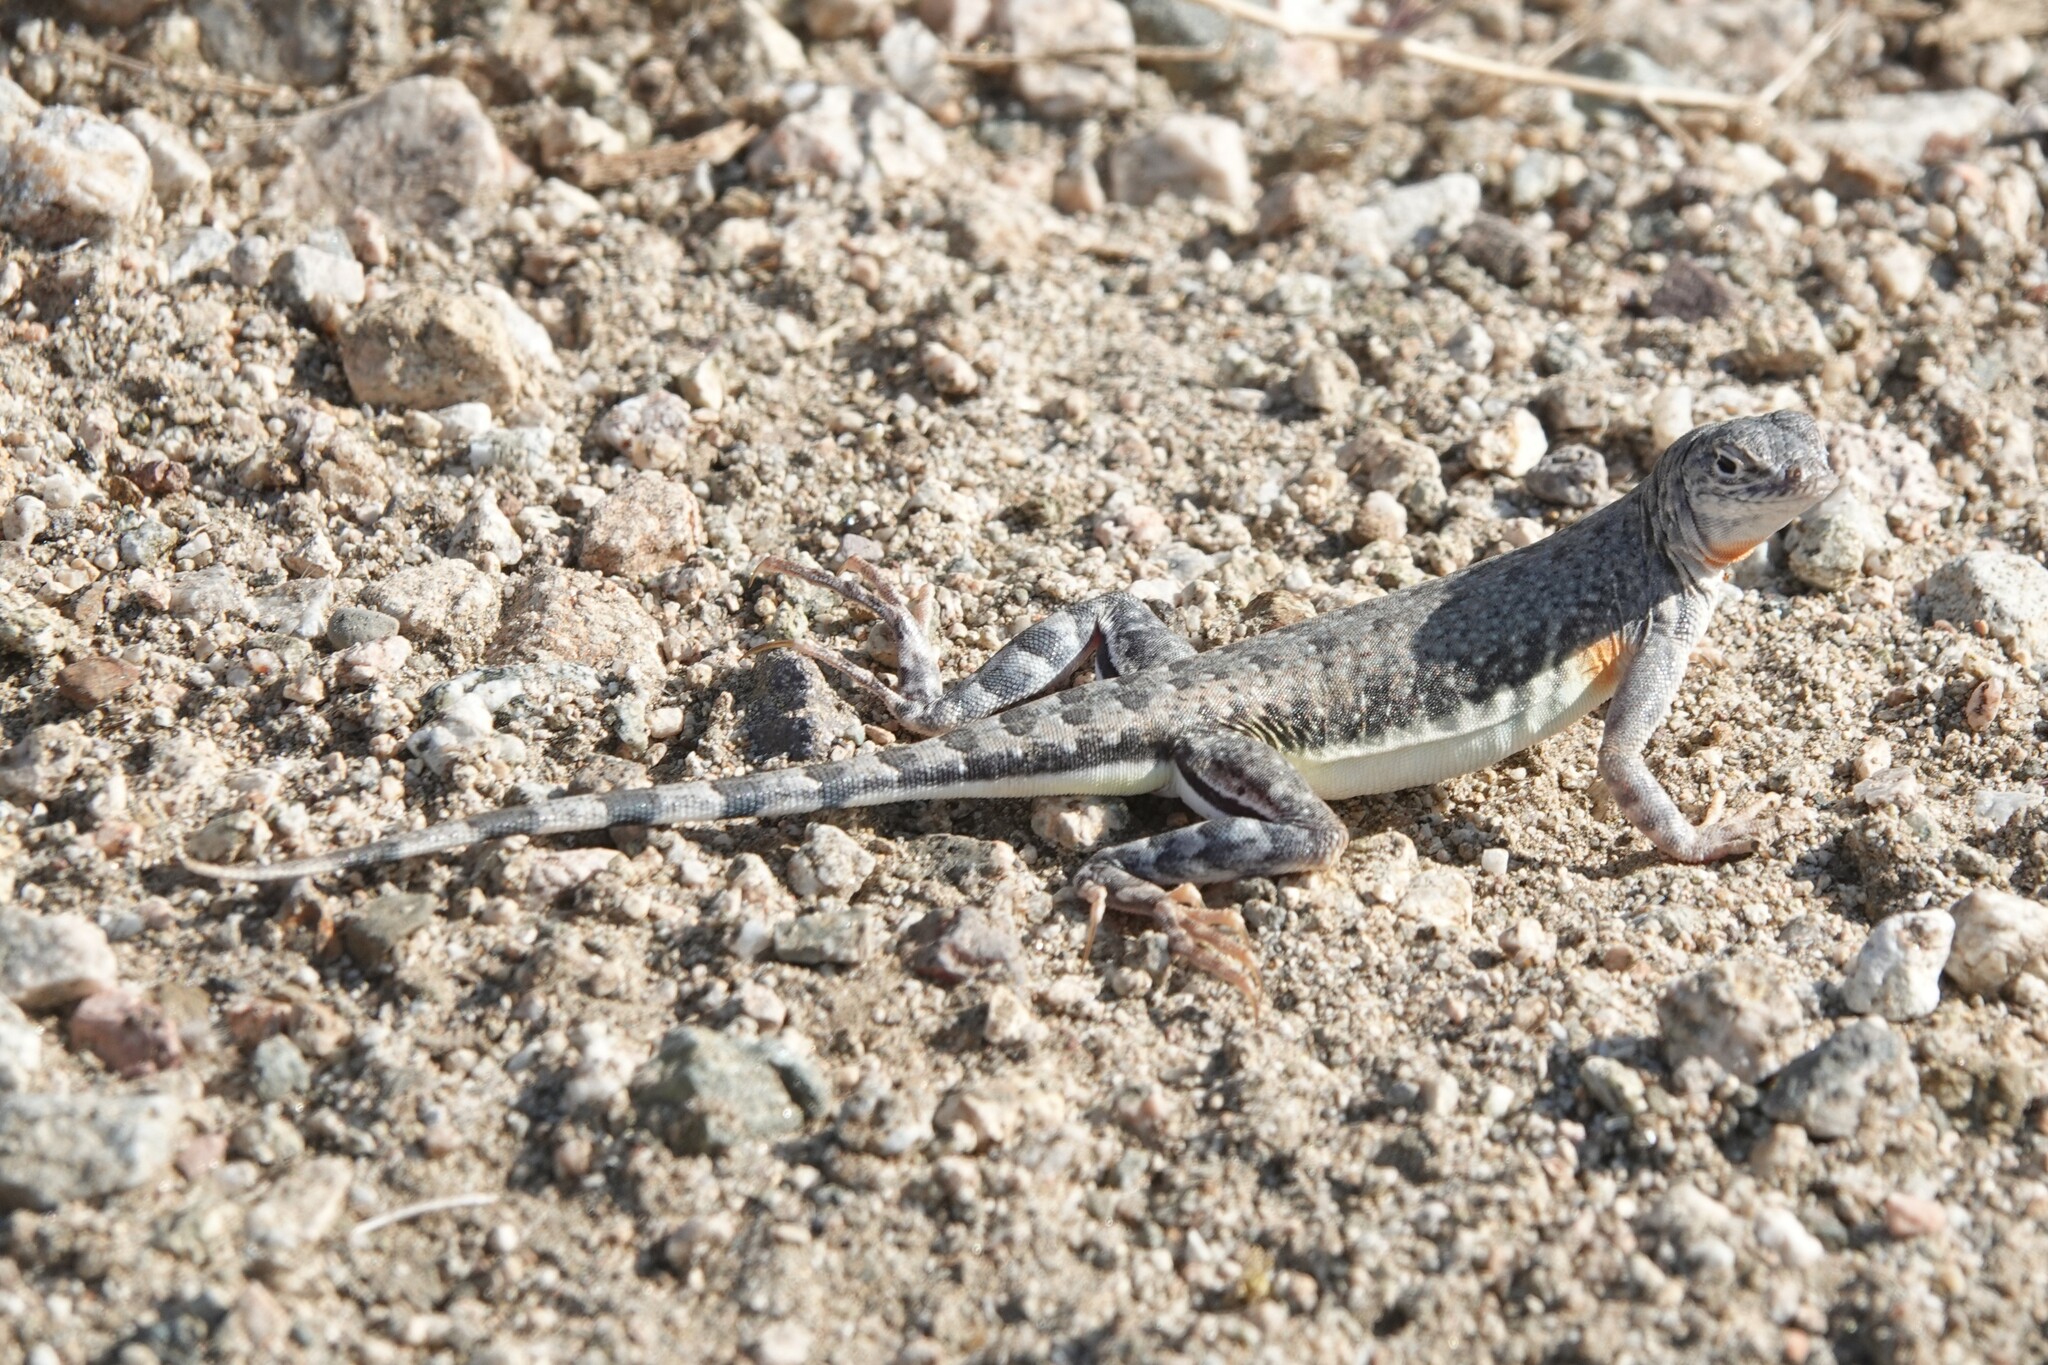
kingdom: Animalia
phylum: Chordata
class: Squamata
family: Phrynosomatidae
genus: Callisaurus
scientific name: Callisaurus draconoides
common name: Zebra-tailed lizard
